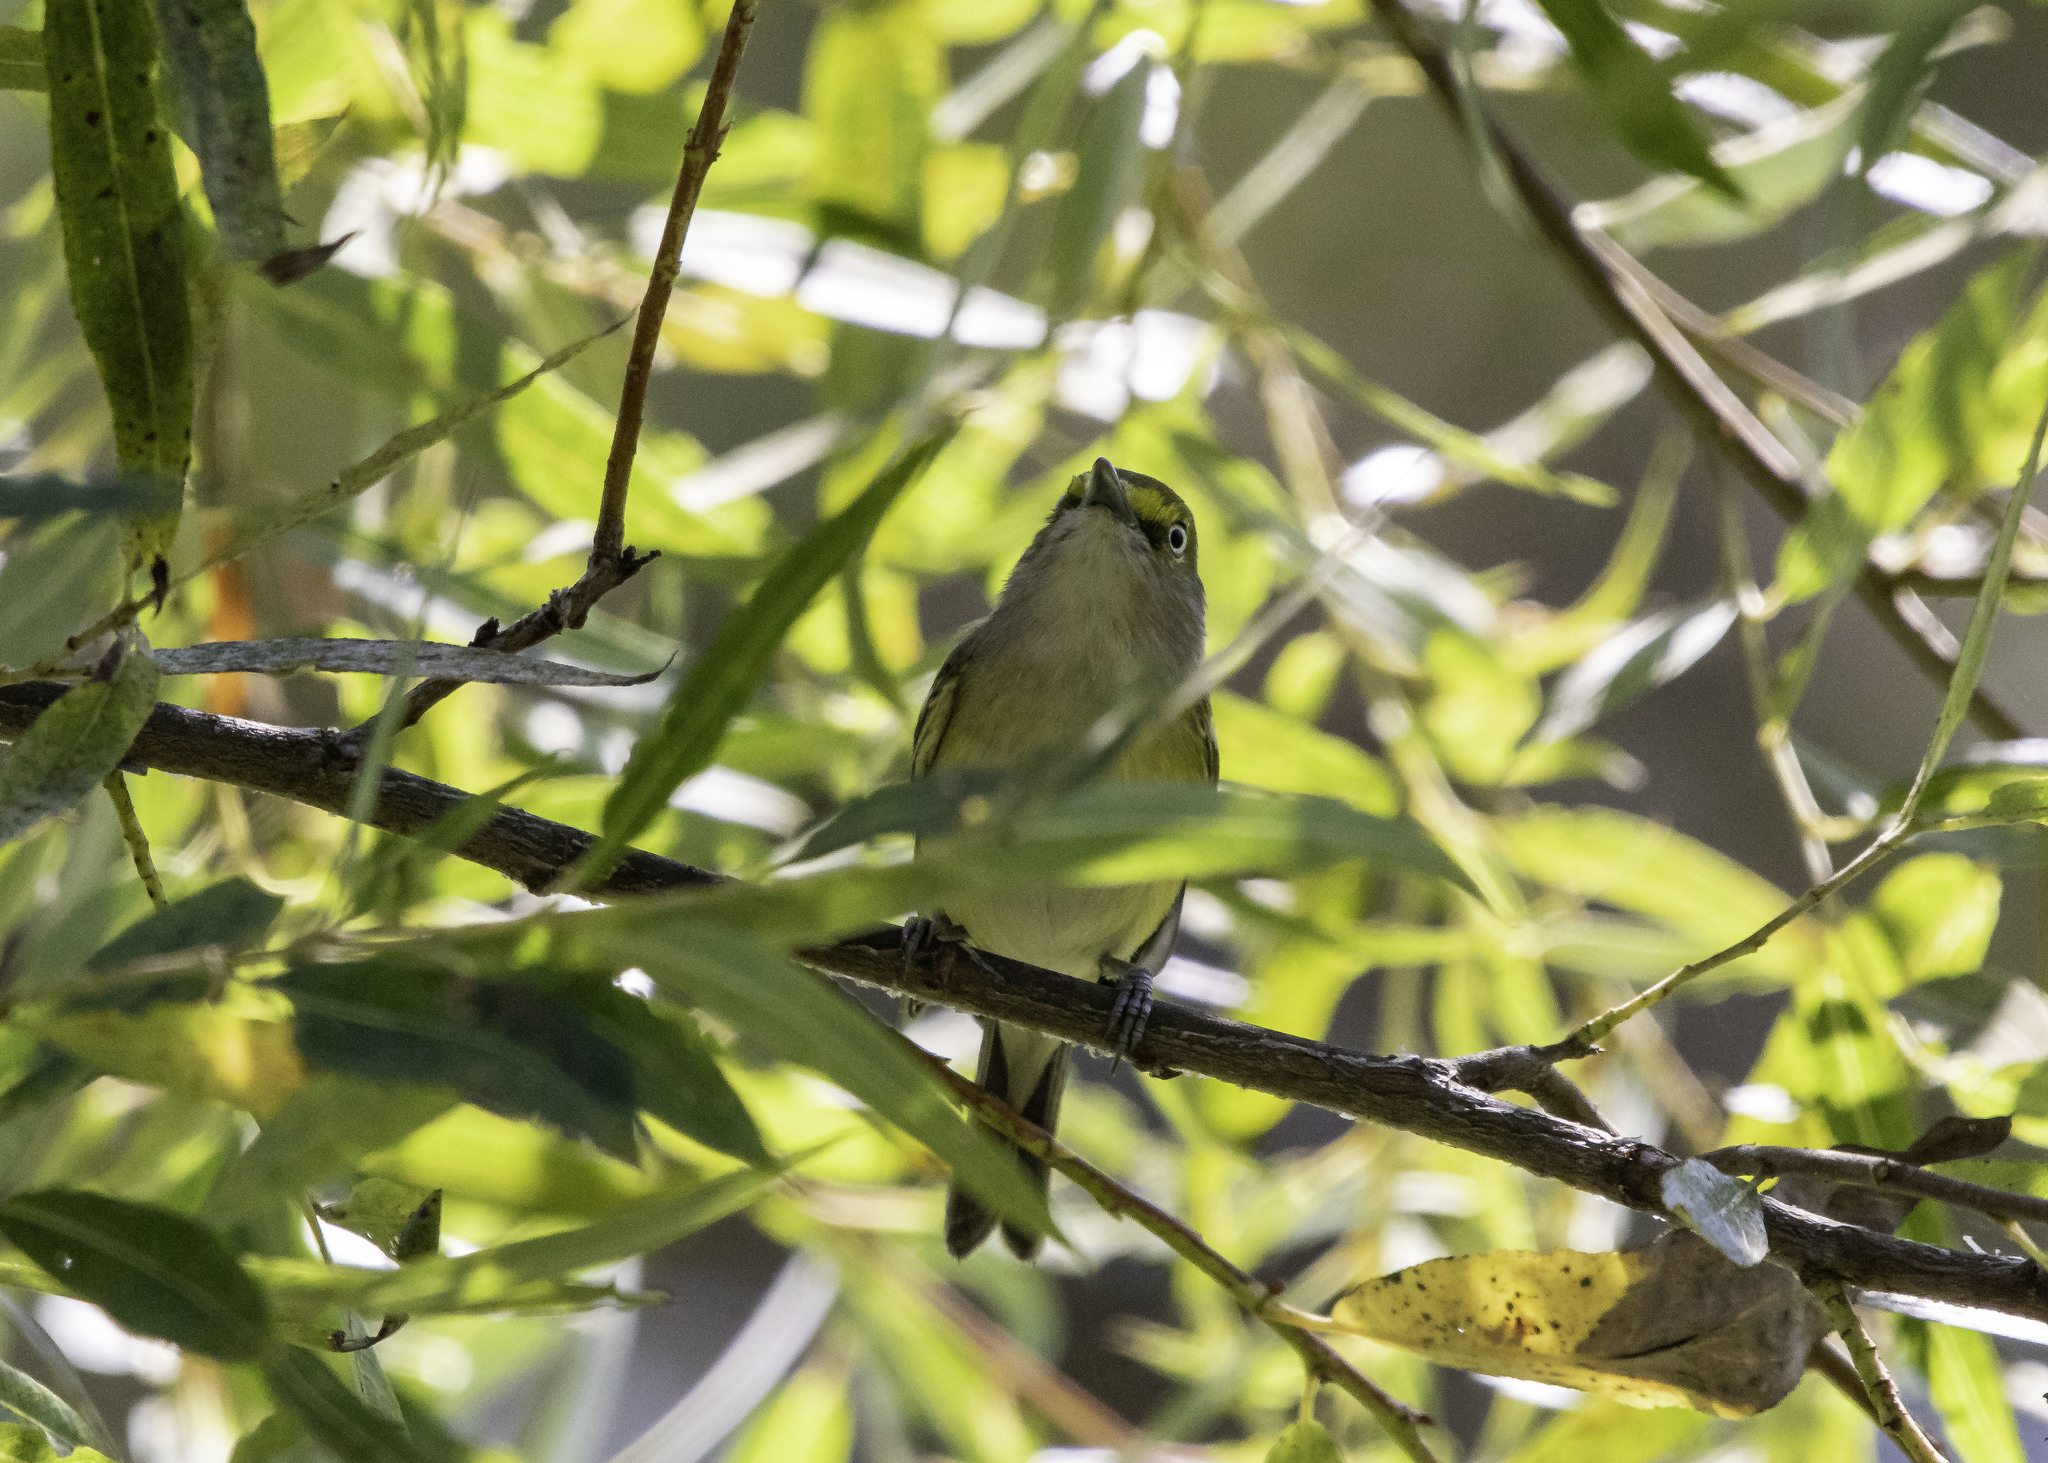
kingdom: Animalia
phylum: Chordata
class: Aves
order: Passeriformes
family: Vireonidae
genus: Vireo
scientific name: Vireo griseus
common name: White-eyed vireo
